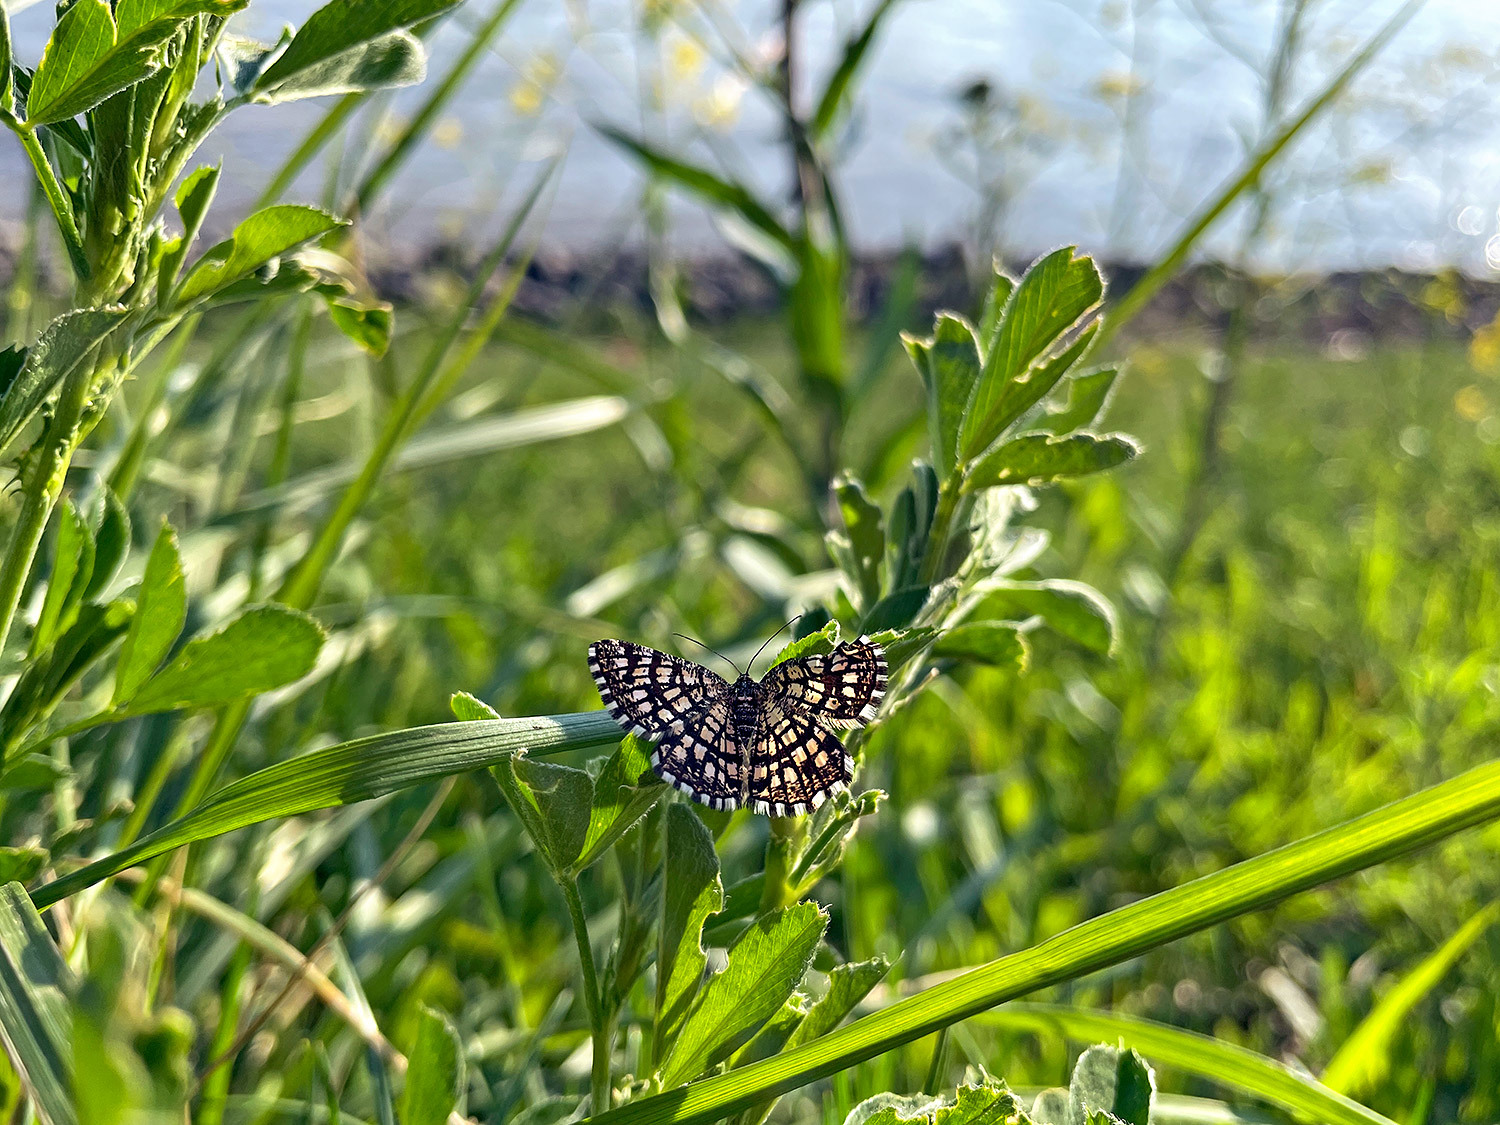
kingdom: Animalia
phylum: Arthropoda
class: Insecta
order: Lepidoptera
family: Geometridae
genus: Chiasmia
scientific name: Chiasmia clathrata
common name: Latticed heath
